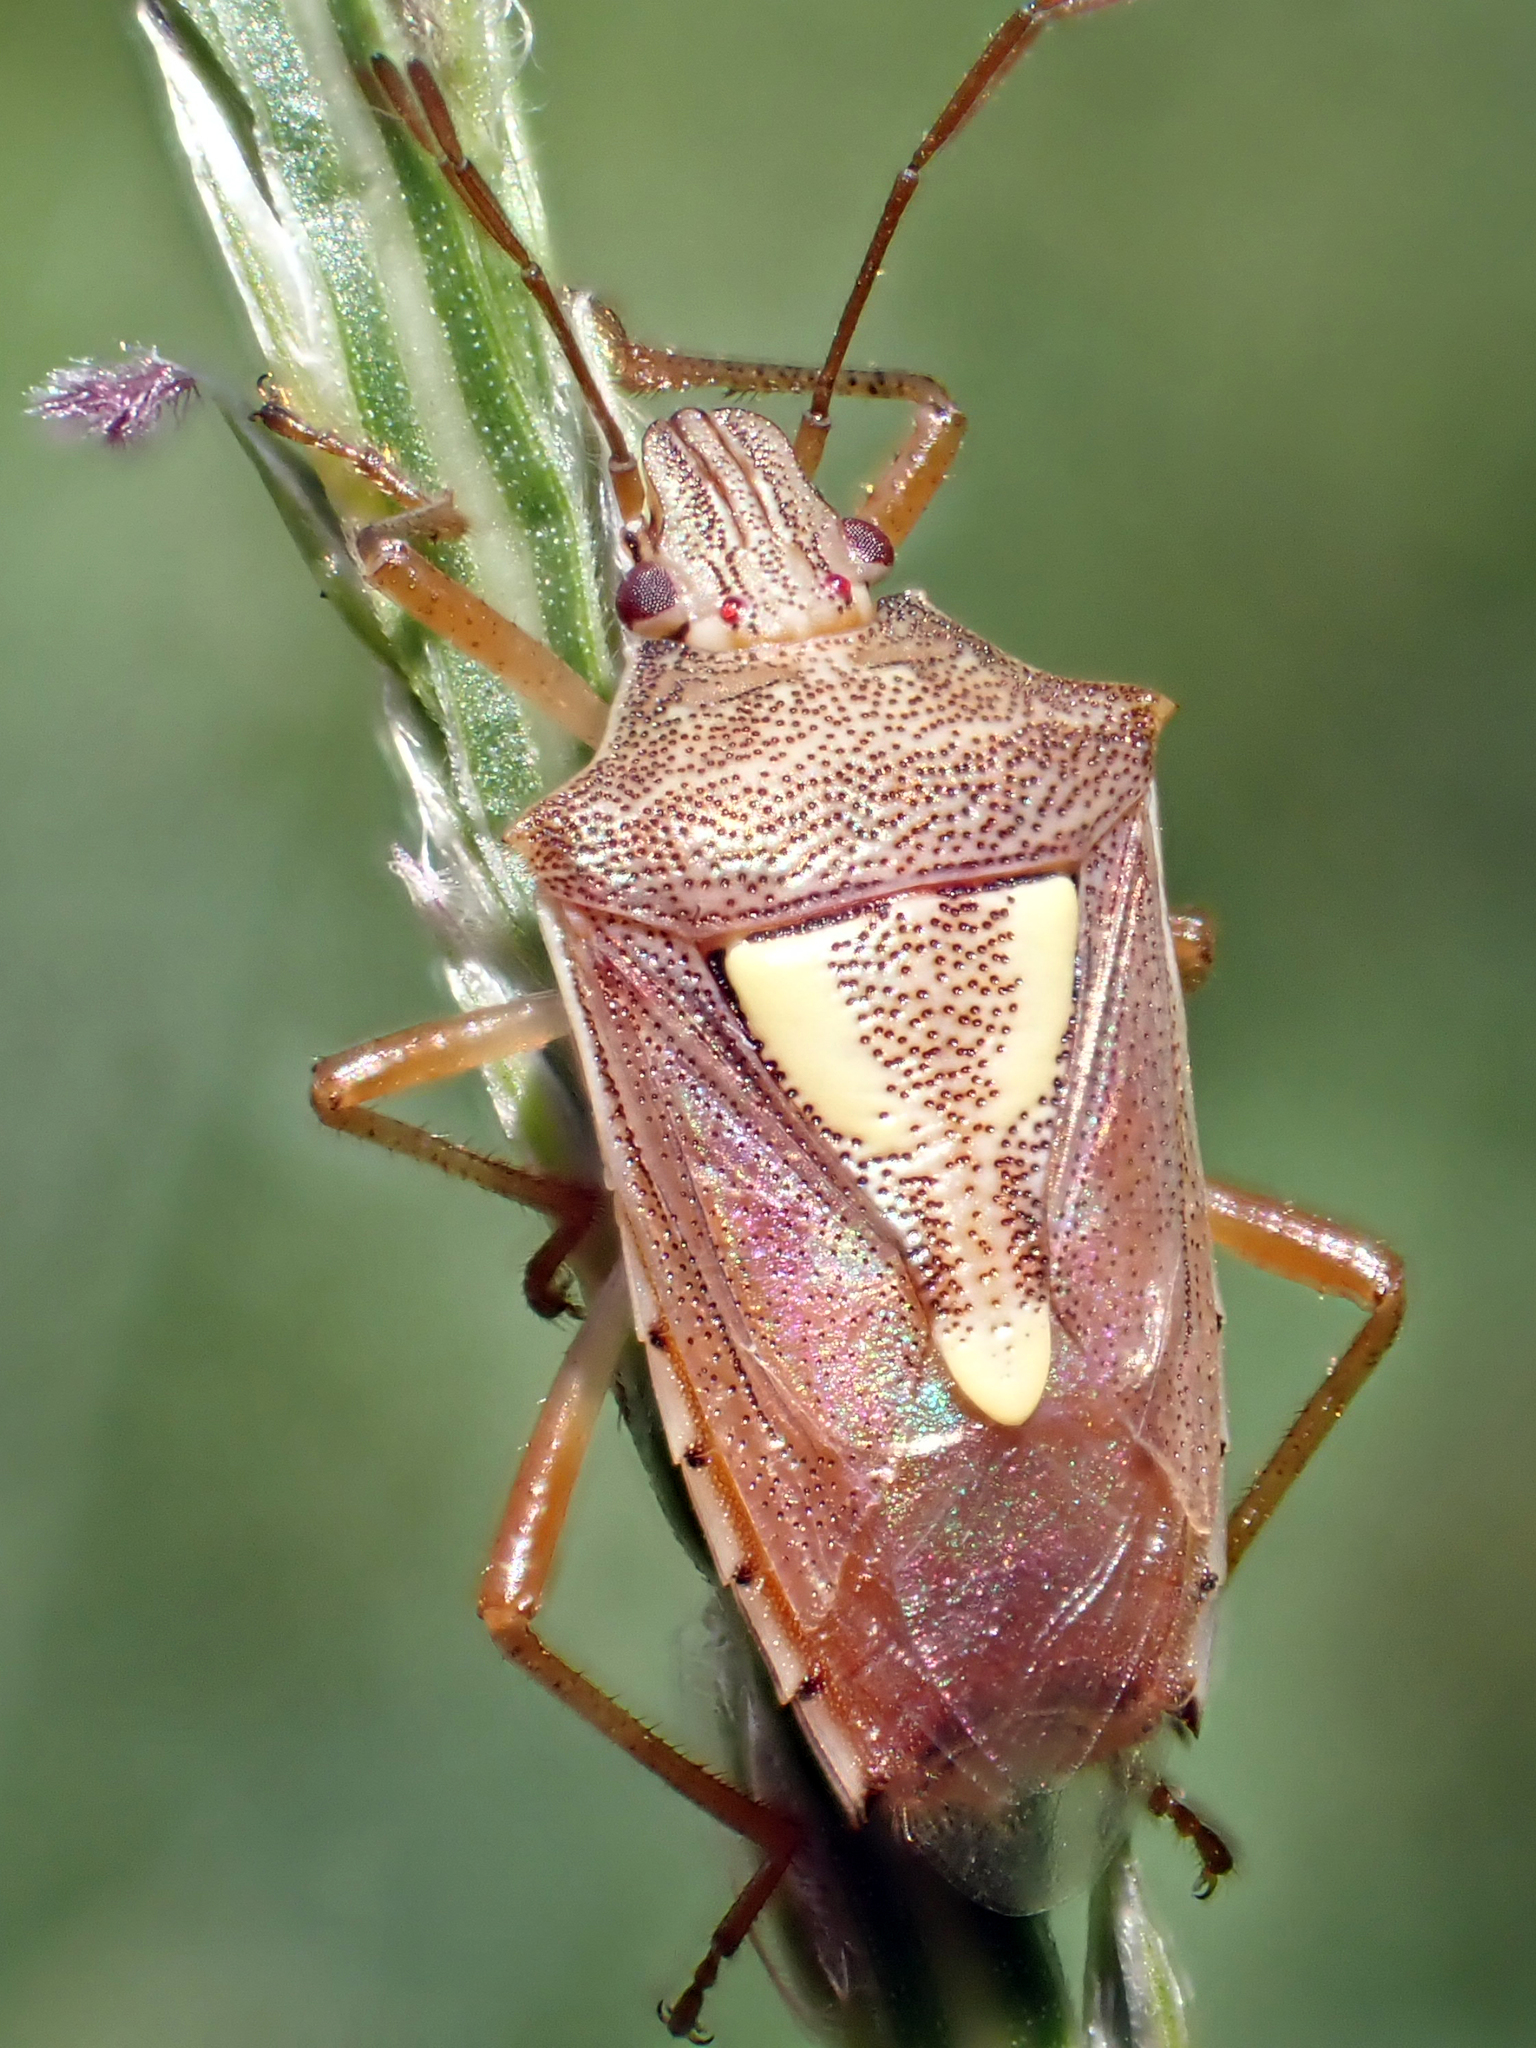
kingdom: Animalia
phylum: Arthropoda
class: Insecta
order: Hemiptera
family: Pentatomidae
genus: Oebalus
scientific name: Oebalus ypsilongriseus
